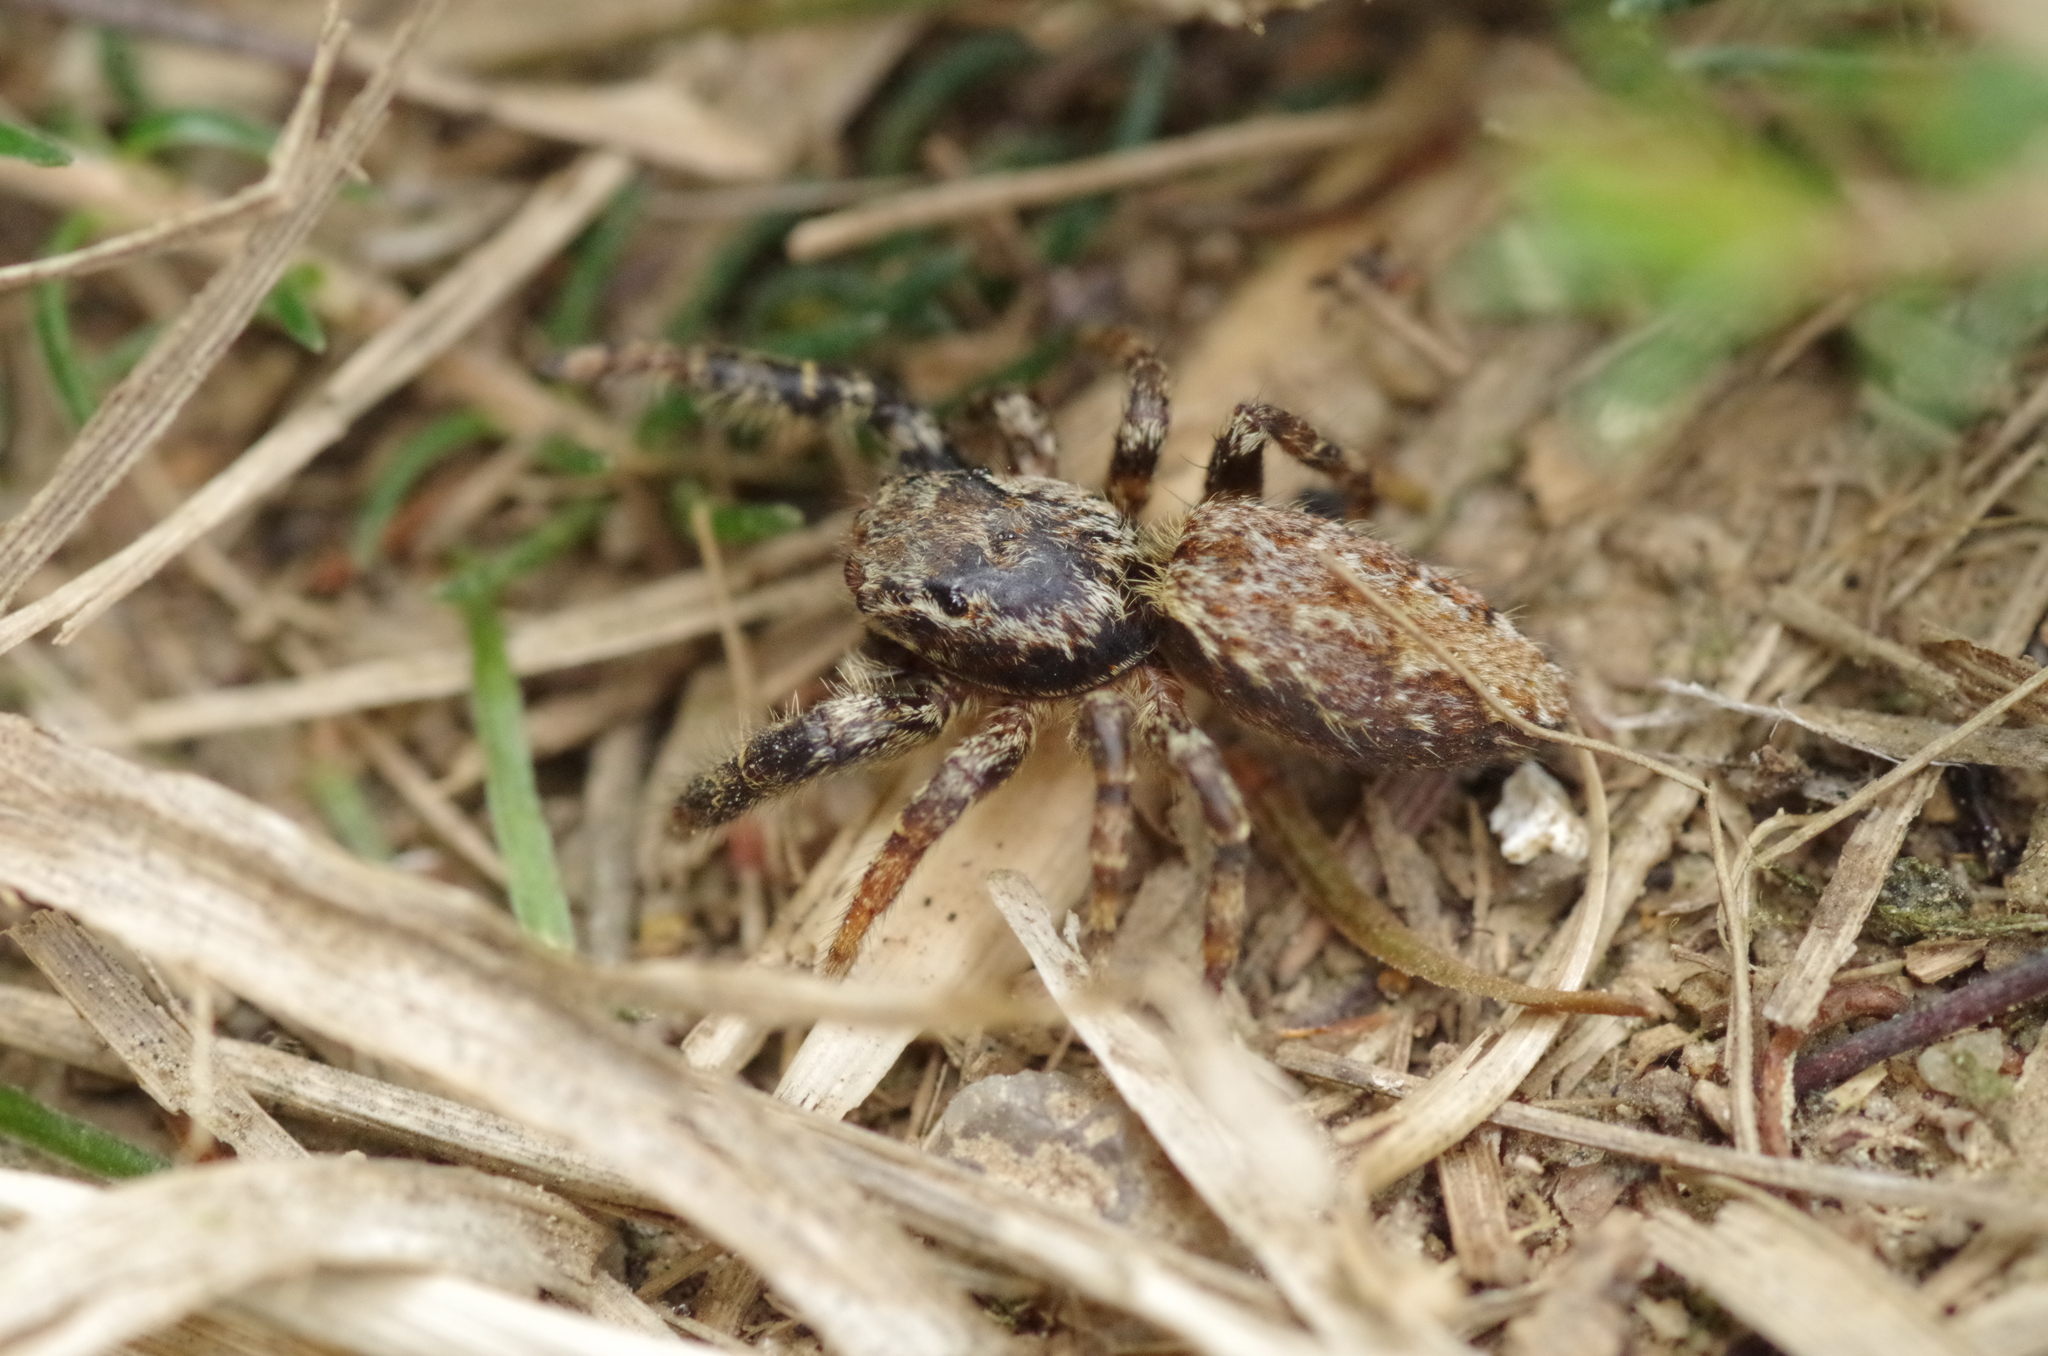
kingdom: Animalia
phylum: Arthropoda
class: Arachnida
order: Araneae
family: Salticidae
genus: Marpissa
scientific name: Marpissa muscosa
